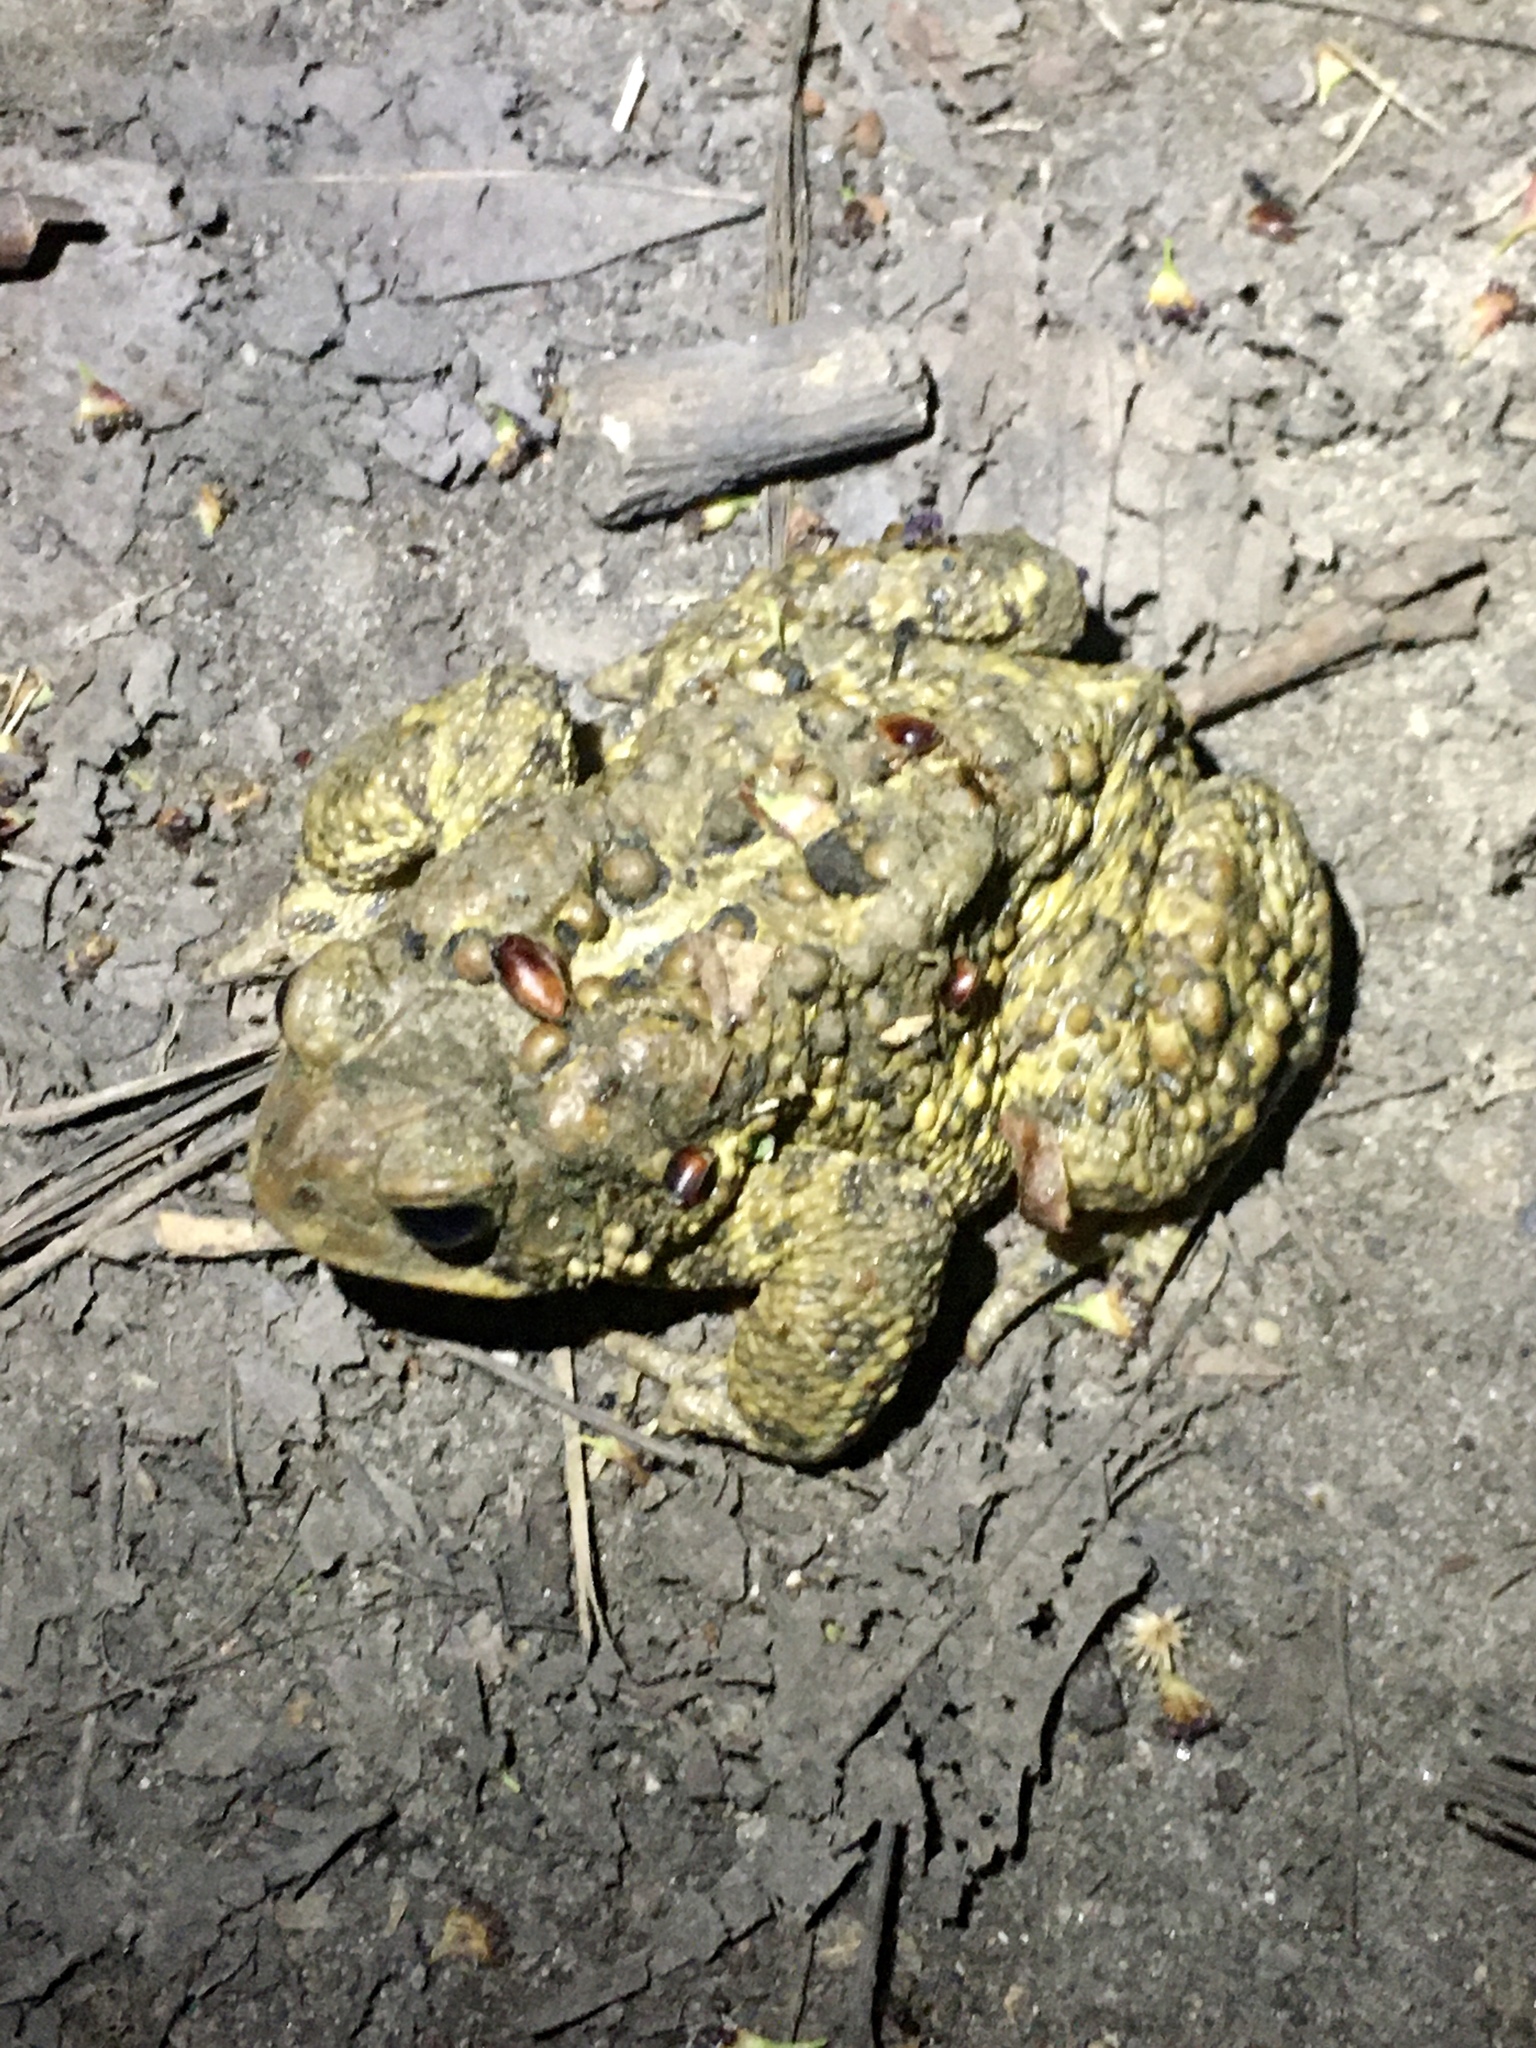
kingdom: Animalia
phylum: Chordata
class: Amphibia
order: Anura
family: Bufonidae
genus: Anaxyrus
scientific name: Anaxyrus americanus
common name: American toad
